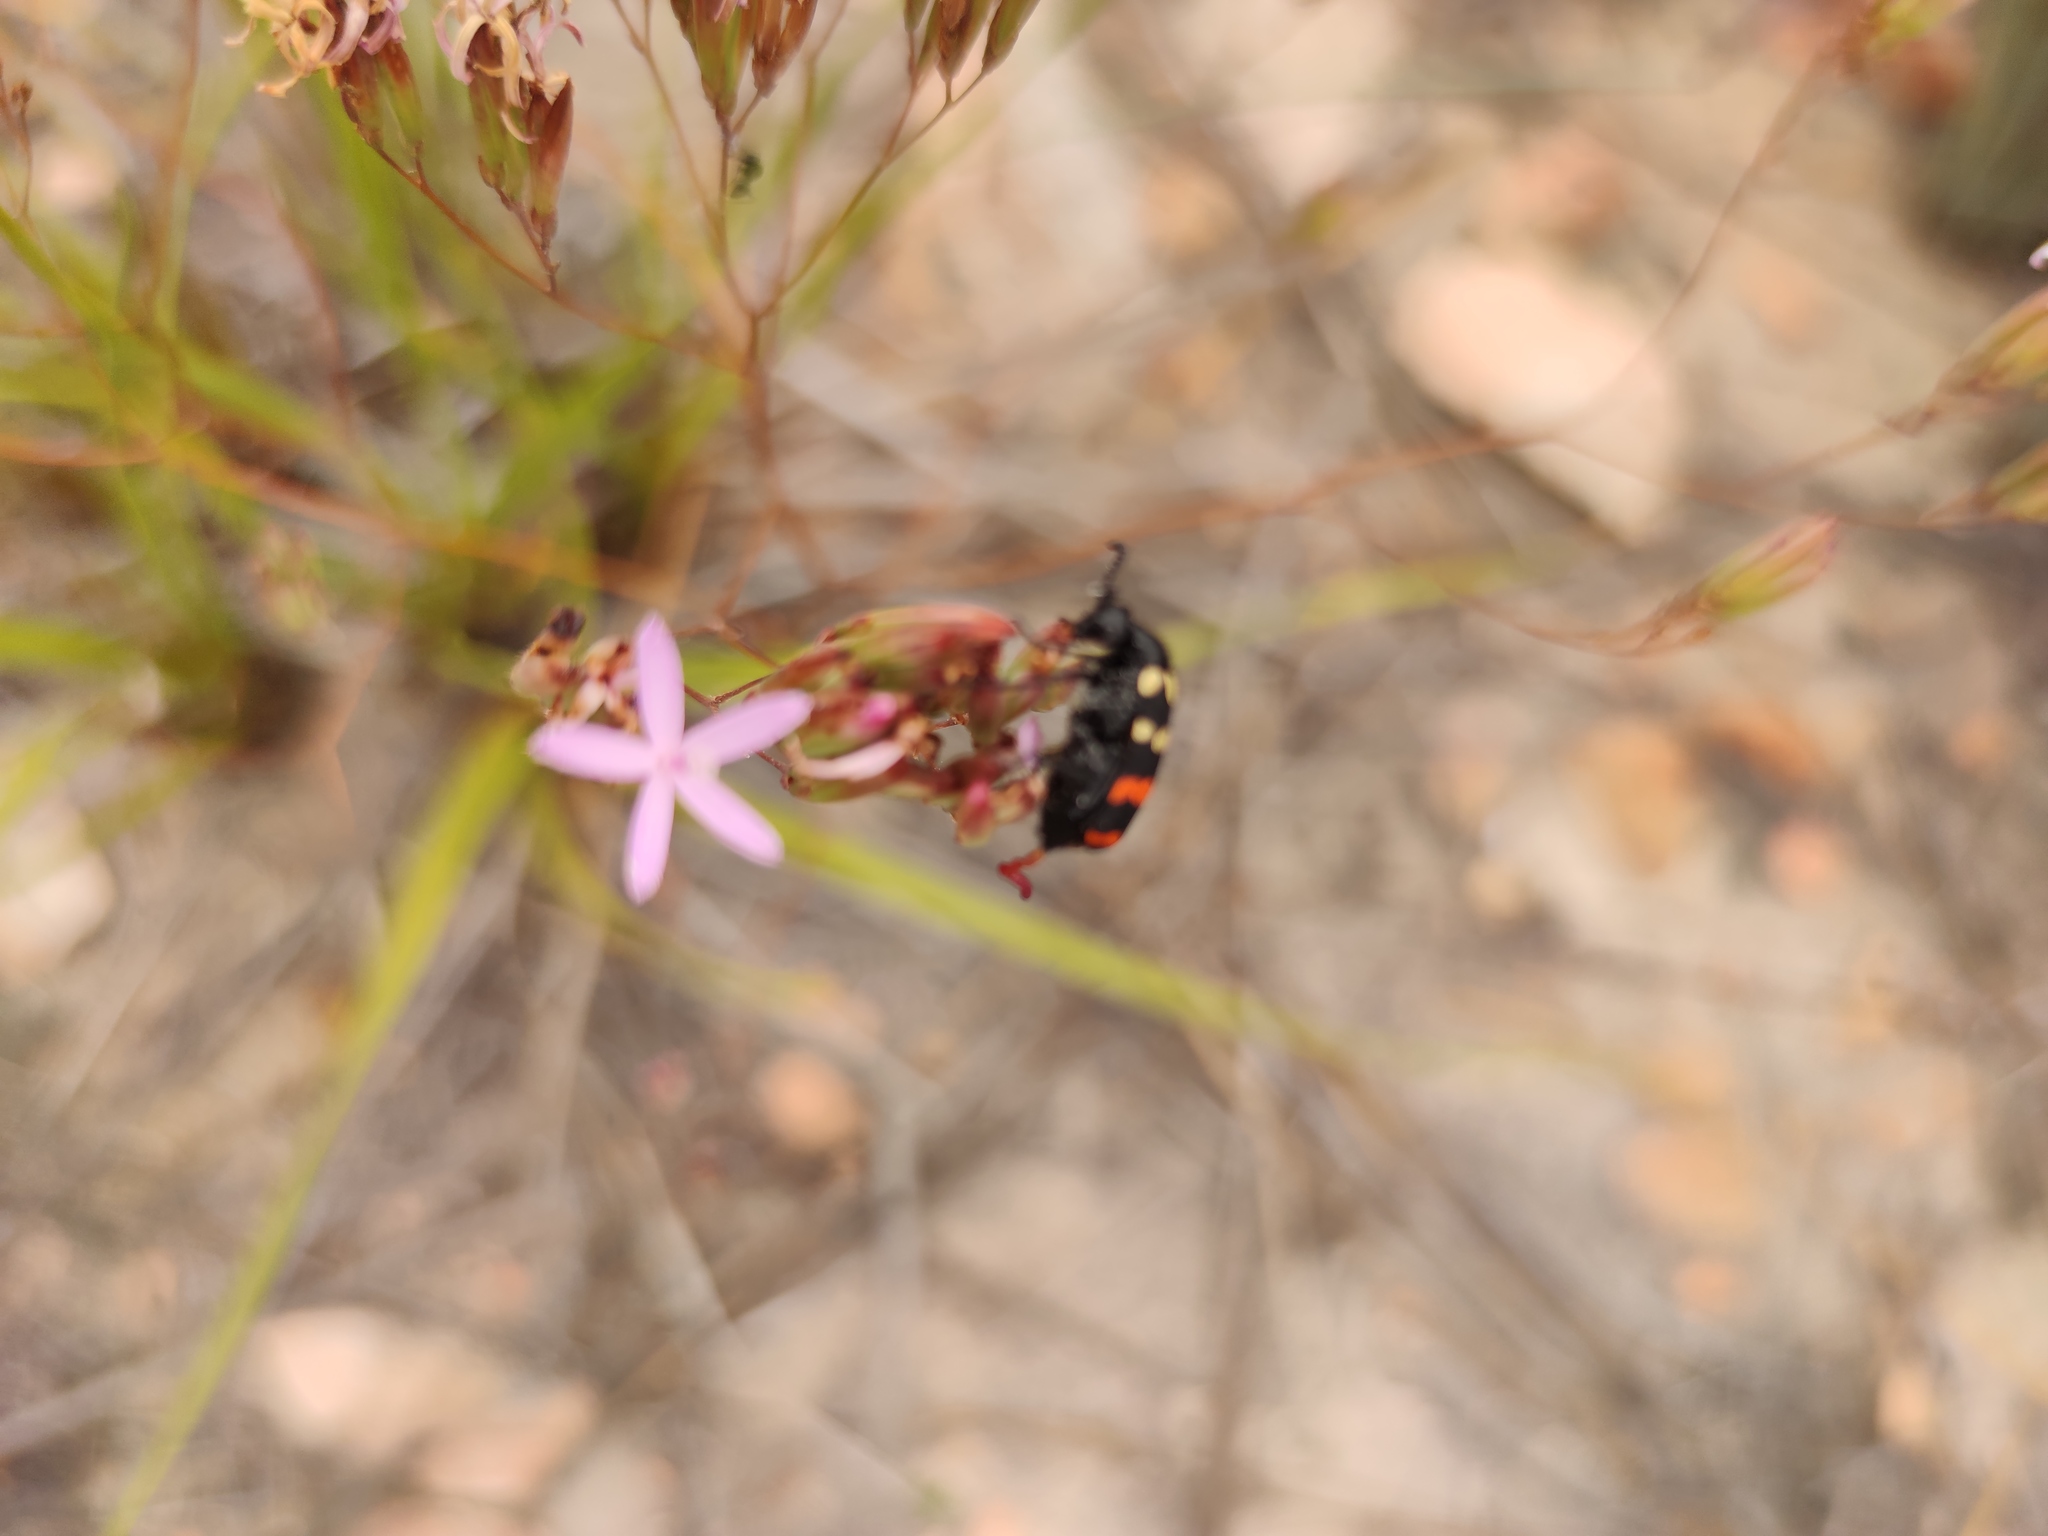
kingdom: Plantae
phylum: Tracheophyta
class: Magnoliopsida
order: Asterales
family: Asteraceae
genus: Corymbium
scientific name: Corymbium glabrum
